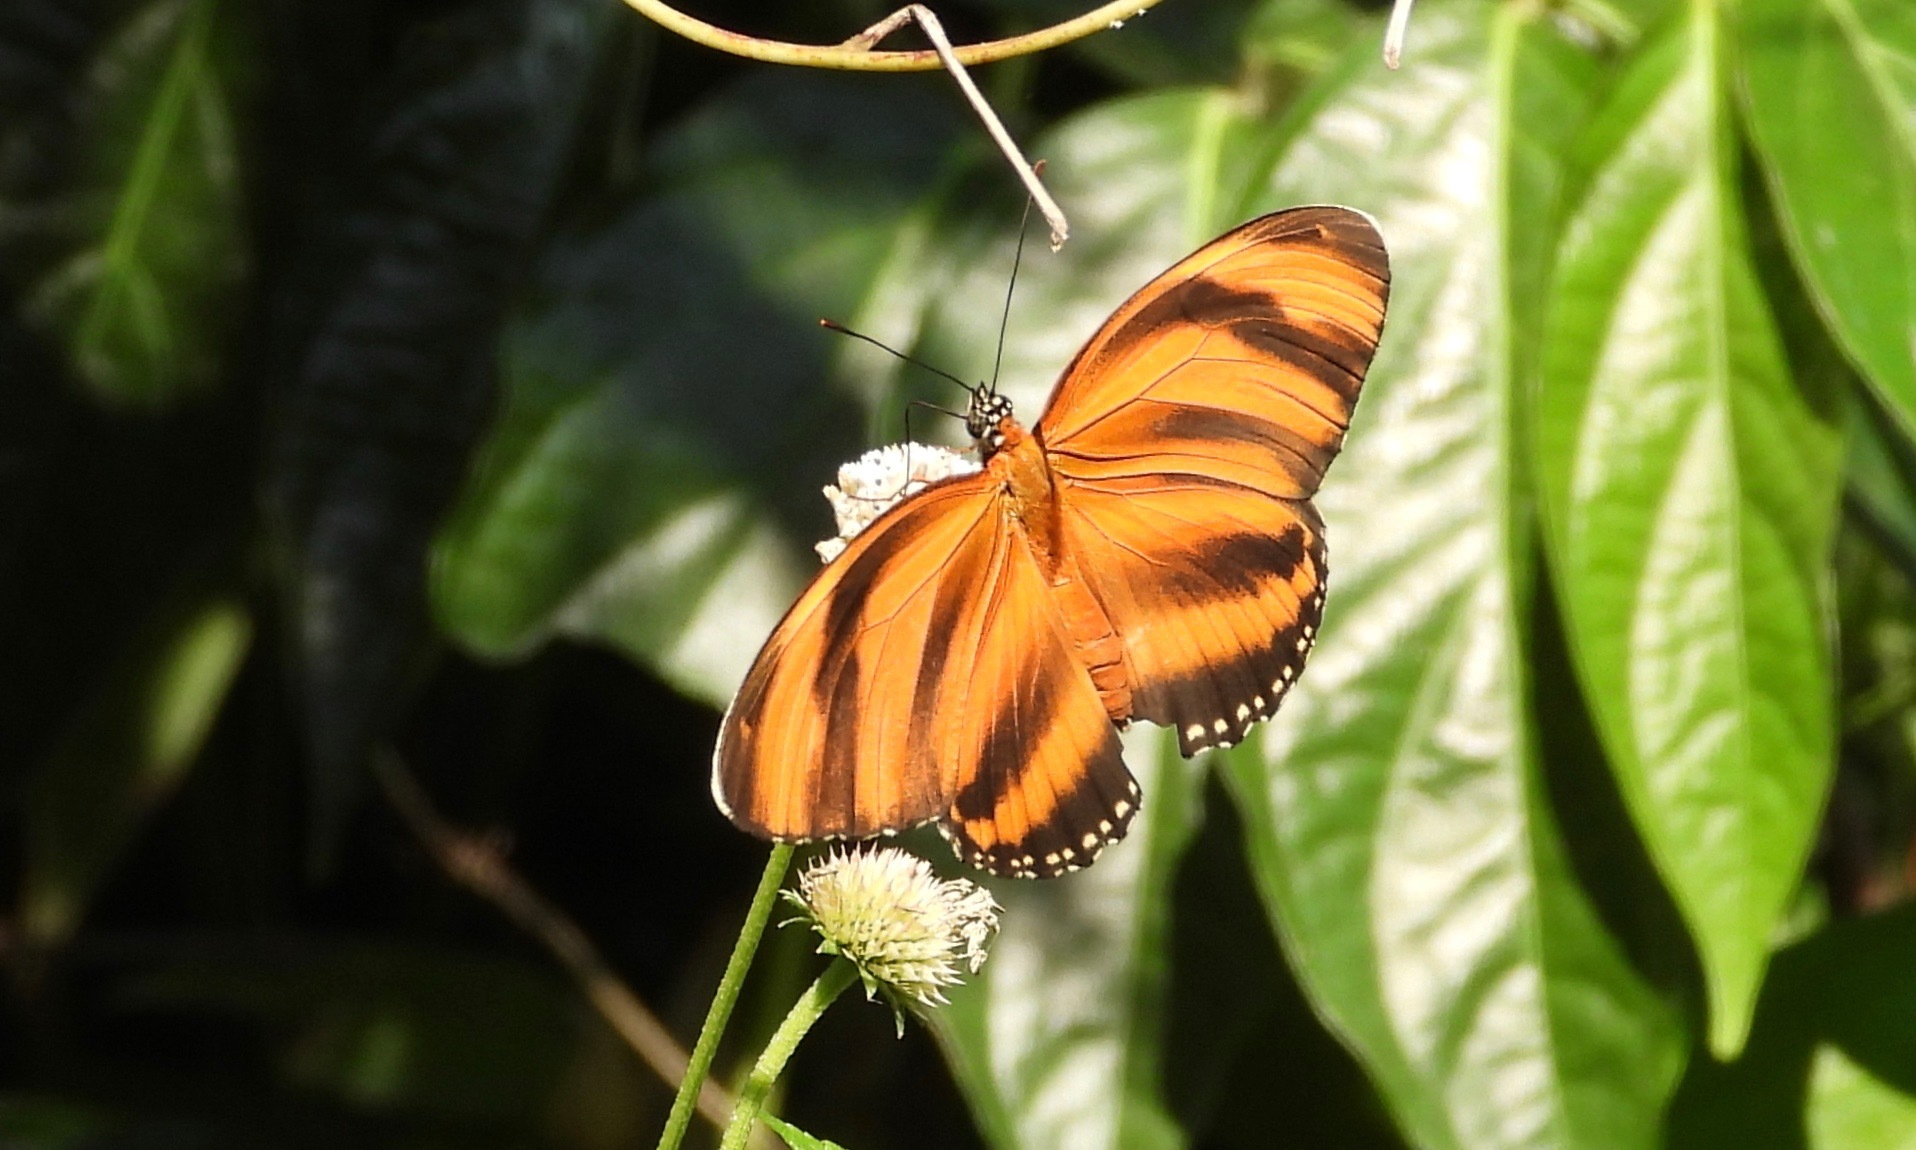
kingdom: Animalia
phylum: Arthropoda
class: Insecta
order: Lepidoptera
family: Nymphalidae
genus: Dryadula
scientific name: Dryadula phaetusa
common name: Banded orange heliconian
